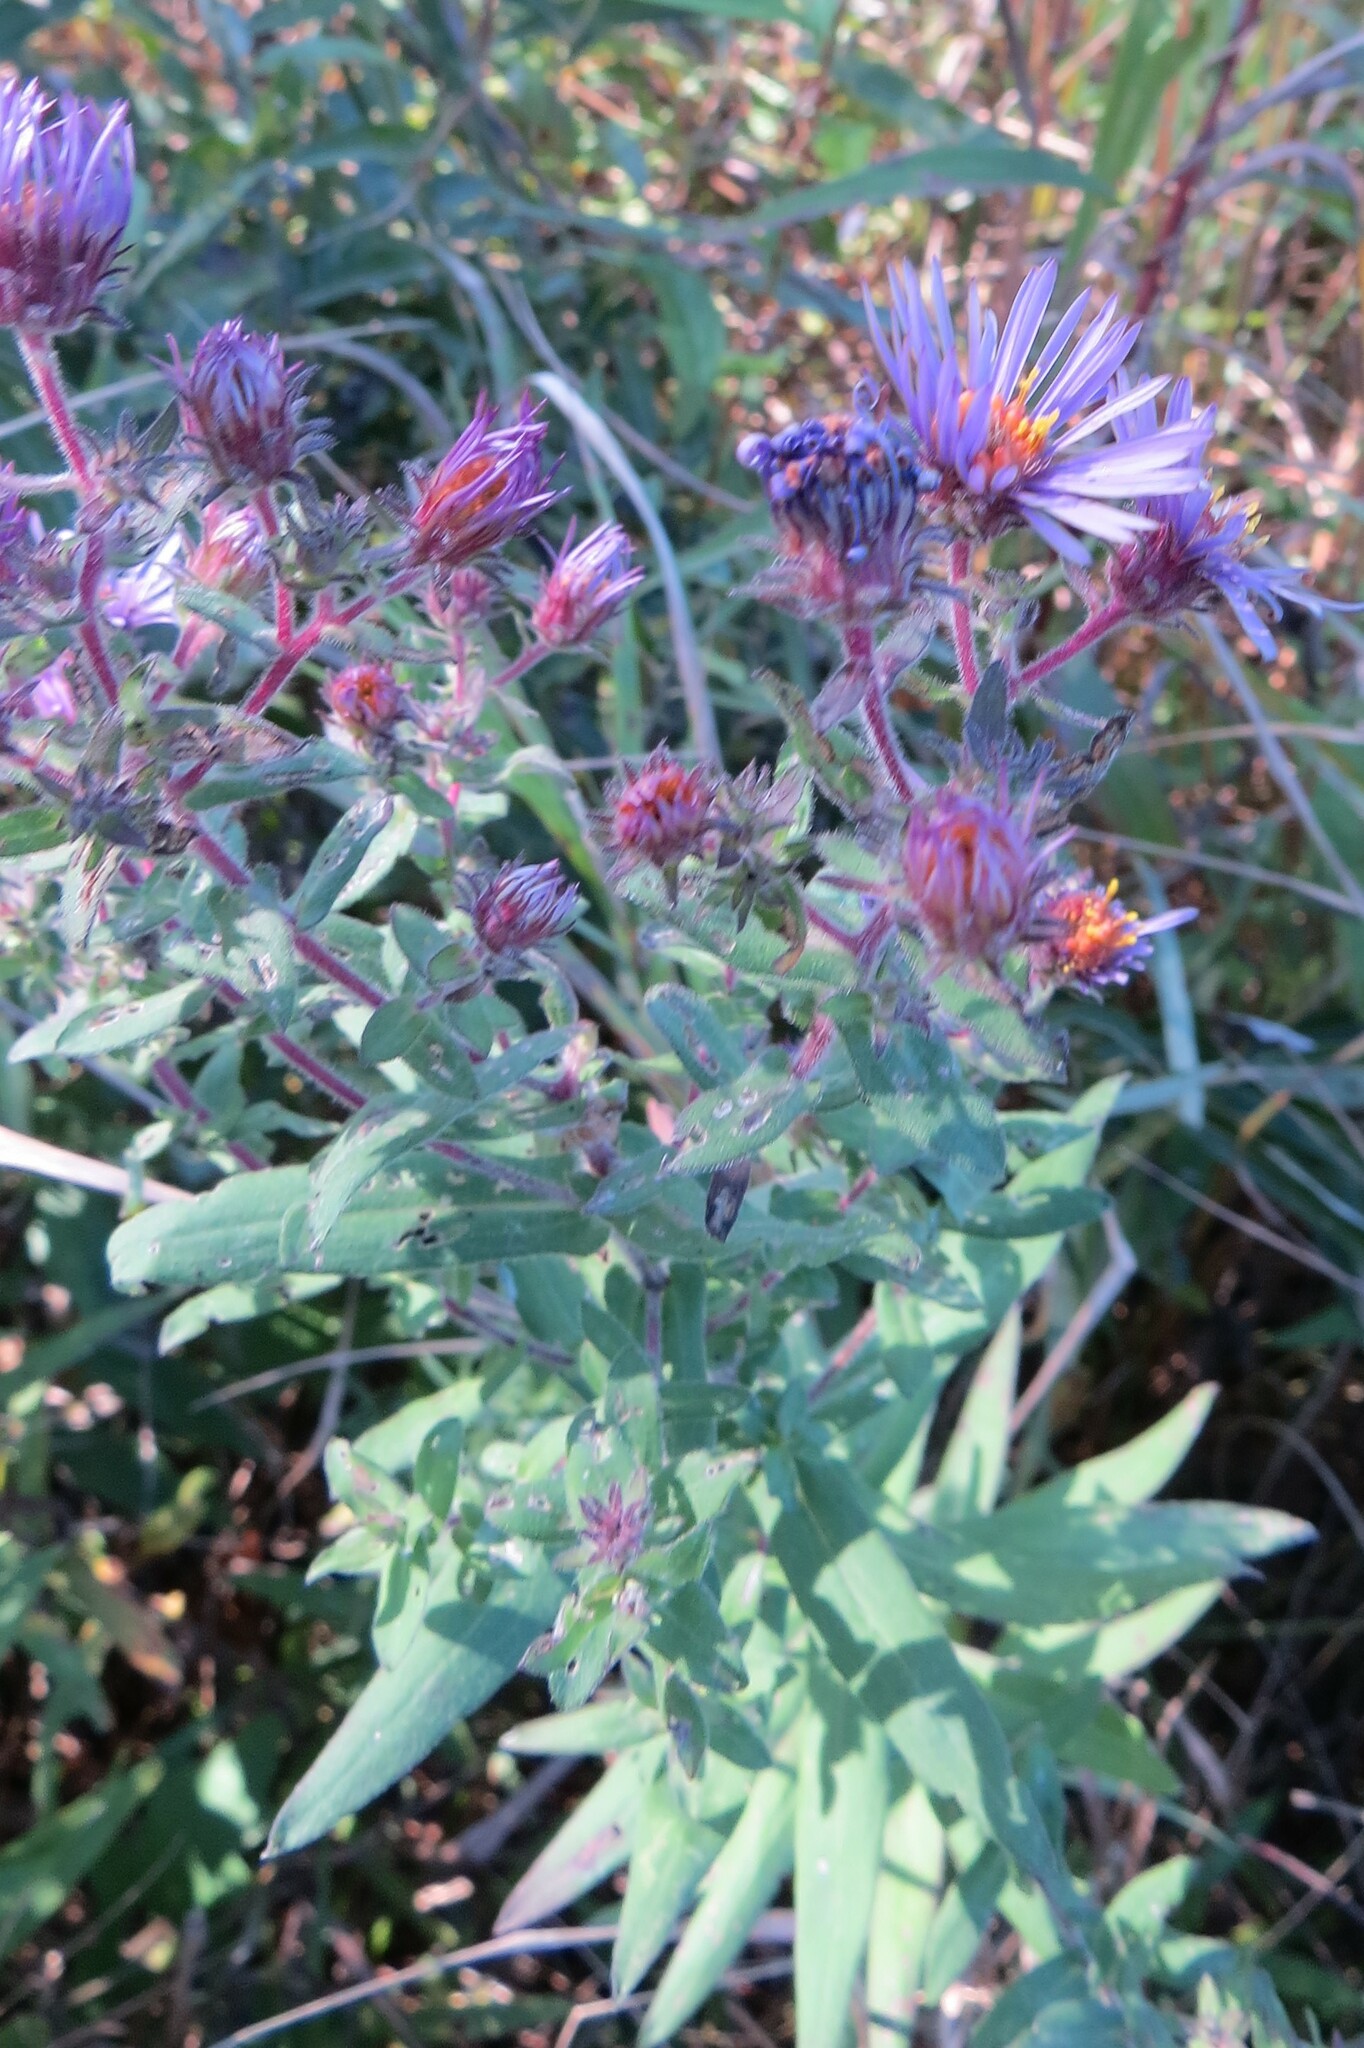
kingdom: Plantae
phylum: Tracheophyta
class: Magnoliopsida
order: Asterales
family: Asteraceae
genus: Symphyotrichum
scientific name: Symphyotrichum novae-angliae
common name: Michaelmas daisy
